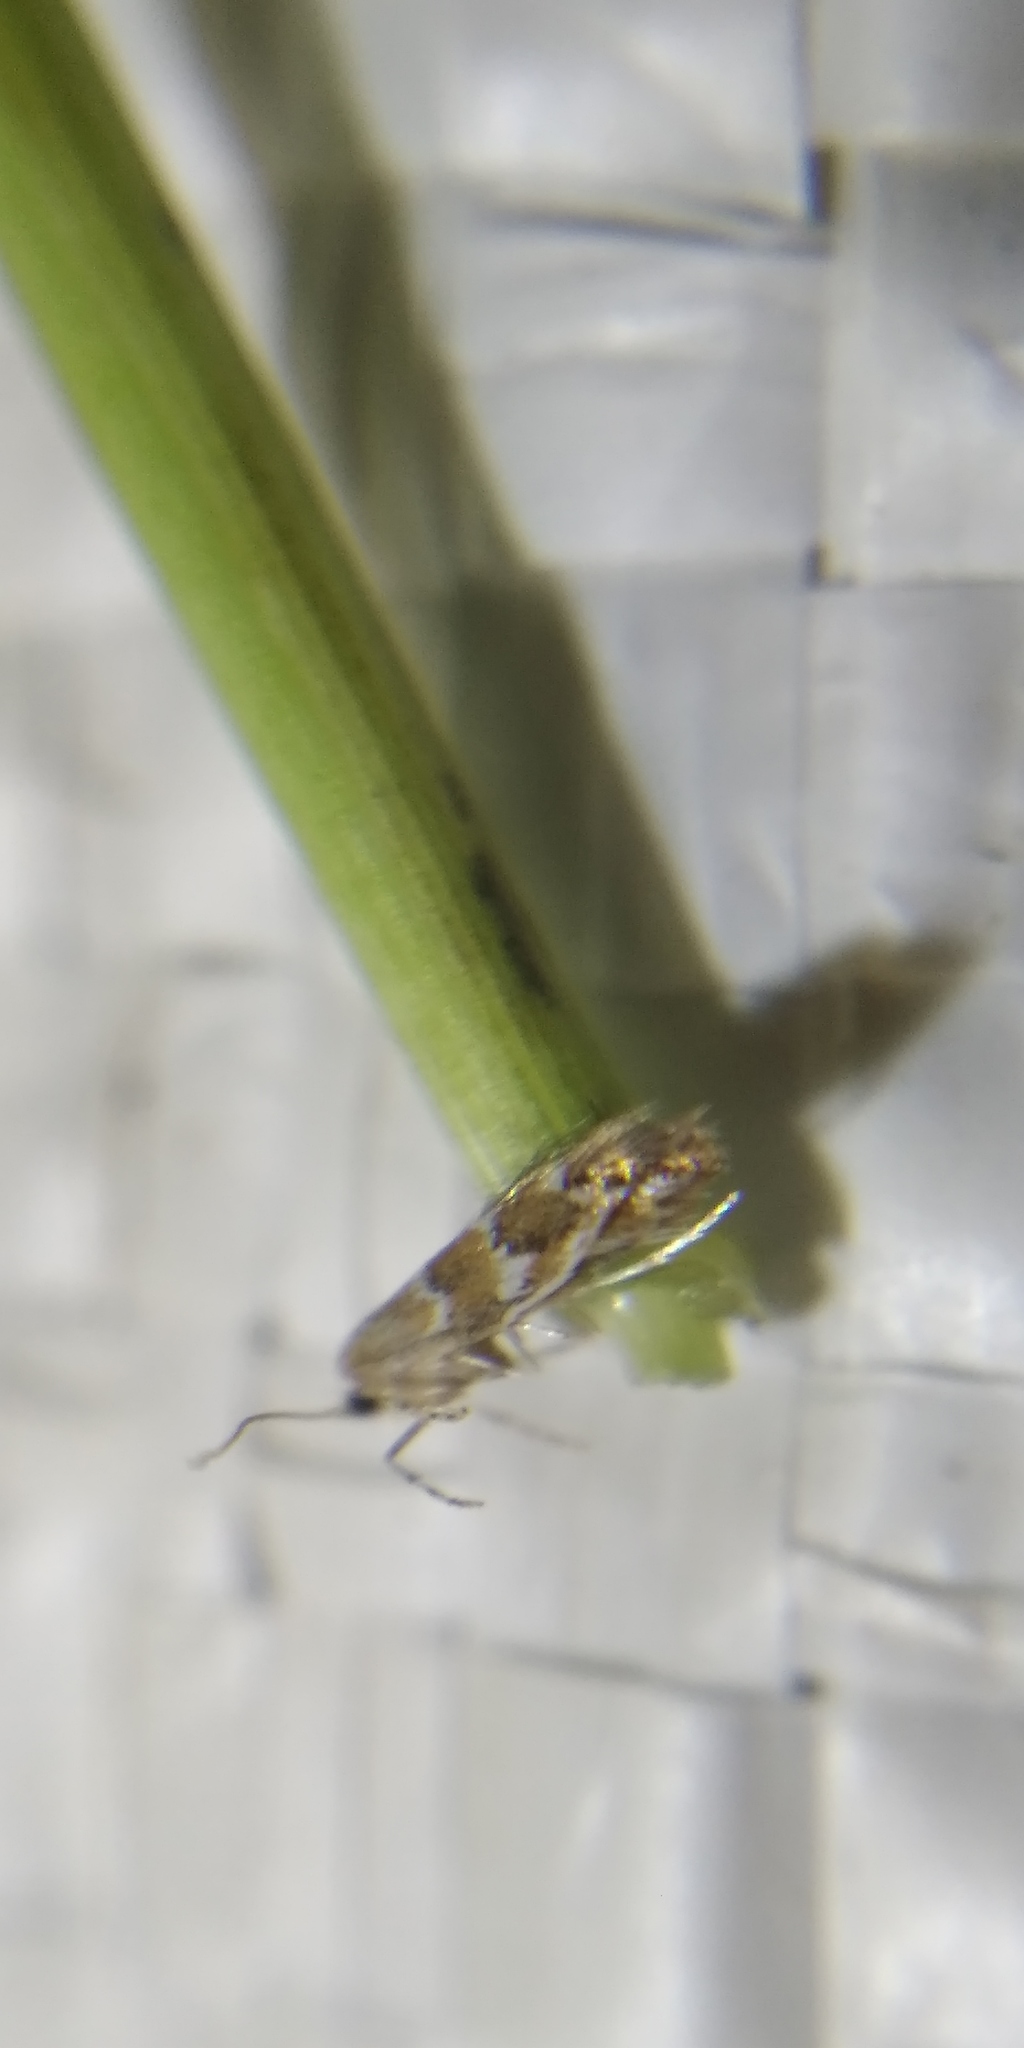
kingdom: Animalia
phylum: Arthropoda
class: Insecta
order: Lepidoptera
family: Gracillariidae
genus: Cameraria
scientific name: Cameraria ohridella
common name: Horse-chestnut leaf-miner
